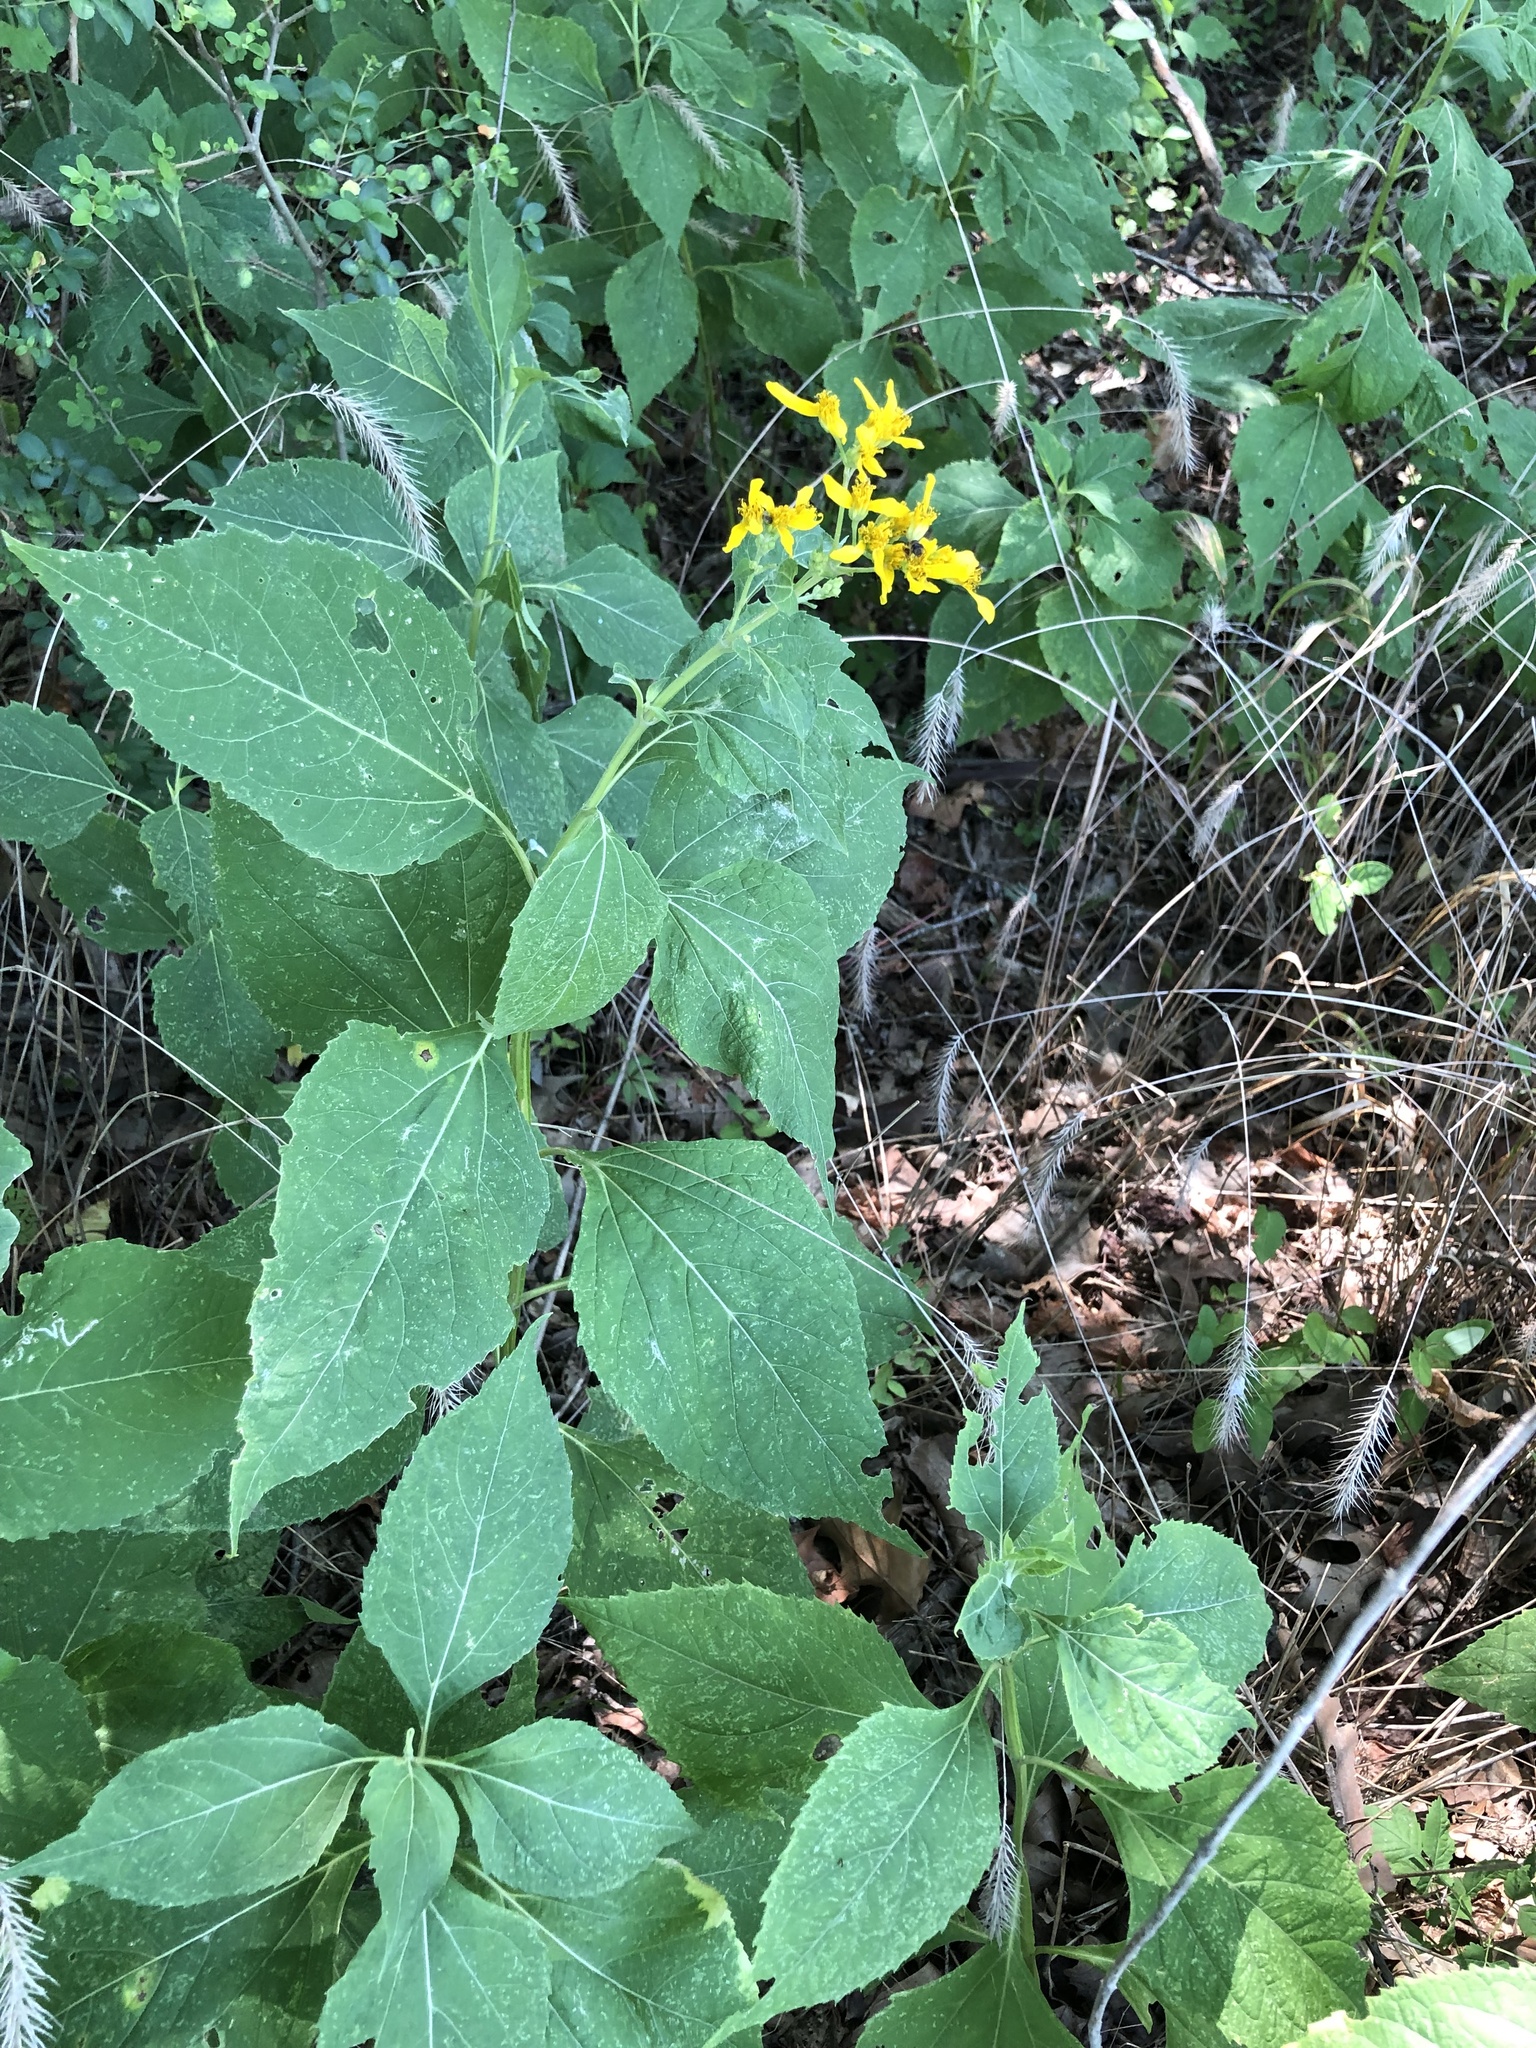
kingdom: Plantae
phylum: Tracheophyta
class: Magnoliopsida
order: Asterales
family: Asteraceae
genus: Verbesina
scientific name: Verbesina occidentalis
